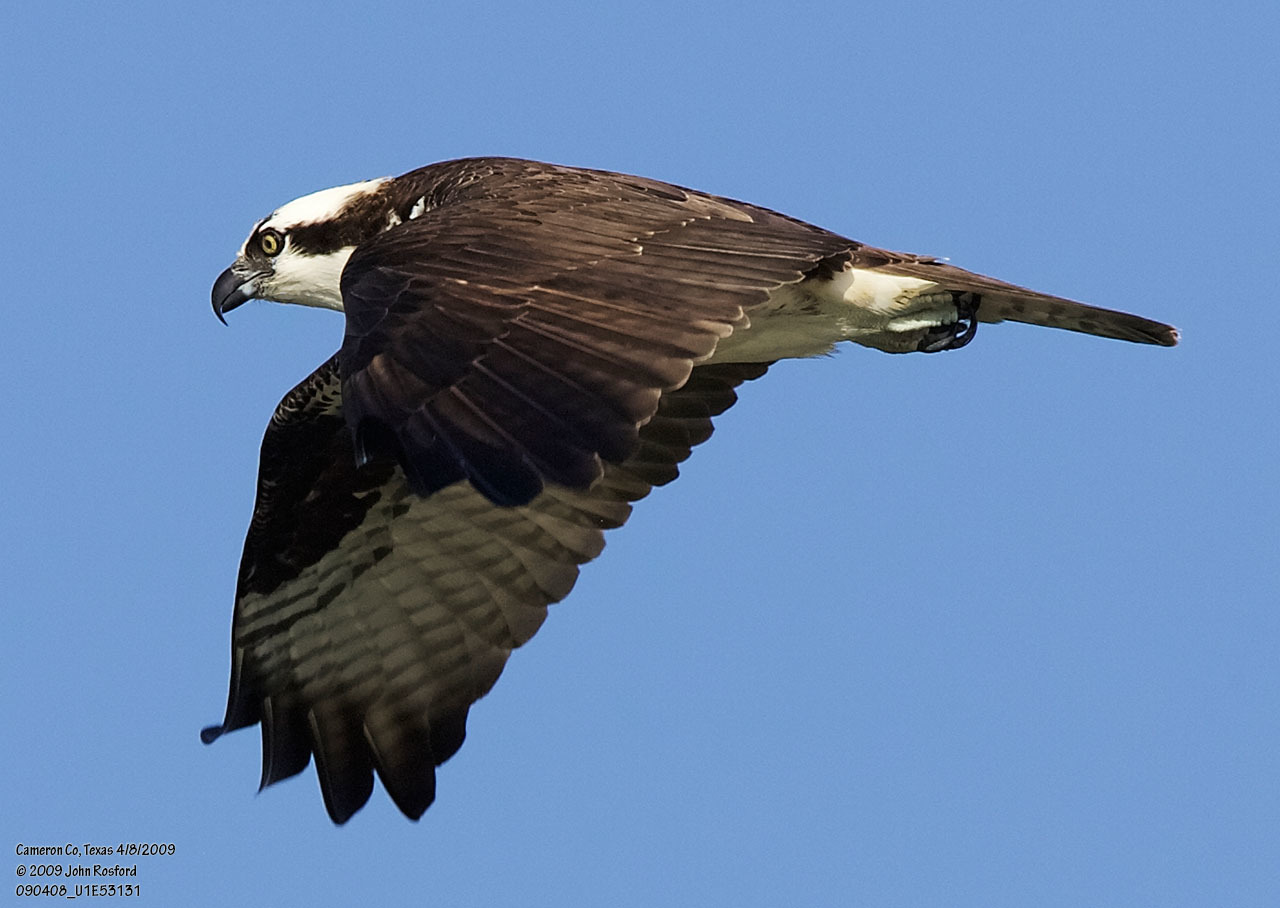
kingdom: Animalia
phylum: Chordata
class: Aves
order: Accipitriformes
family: Pandionidae
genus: Pandion
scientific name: Pandion haliaetus
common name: Osprey
